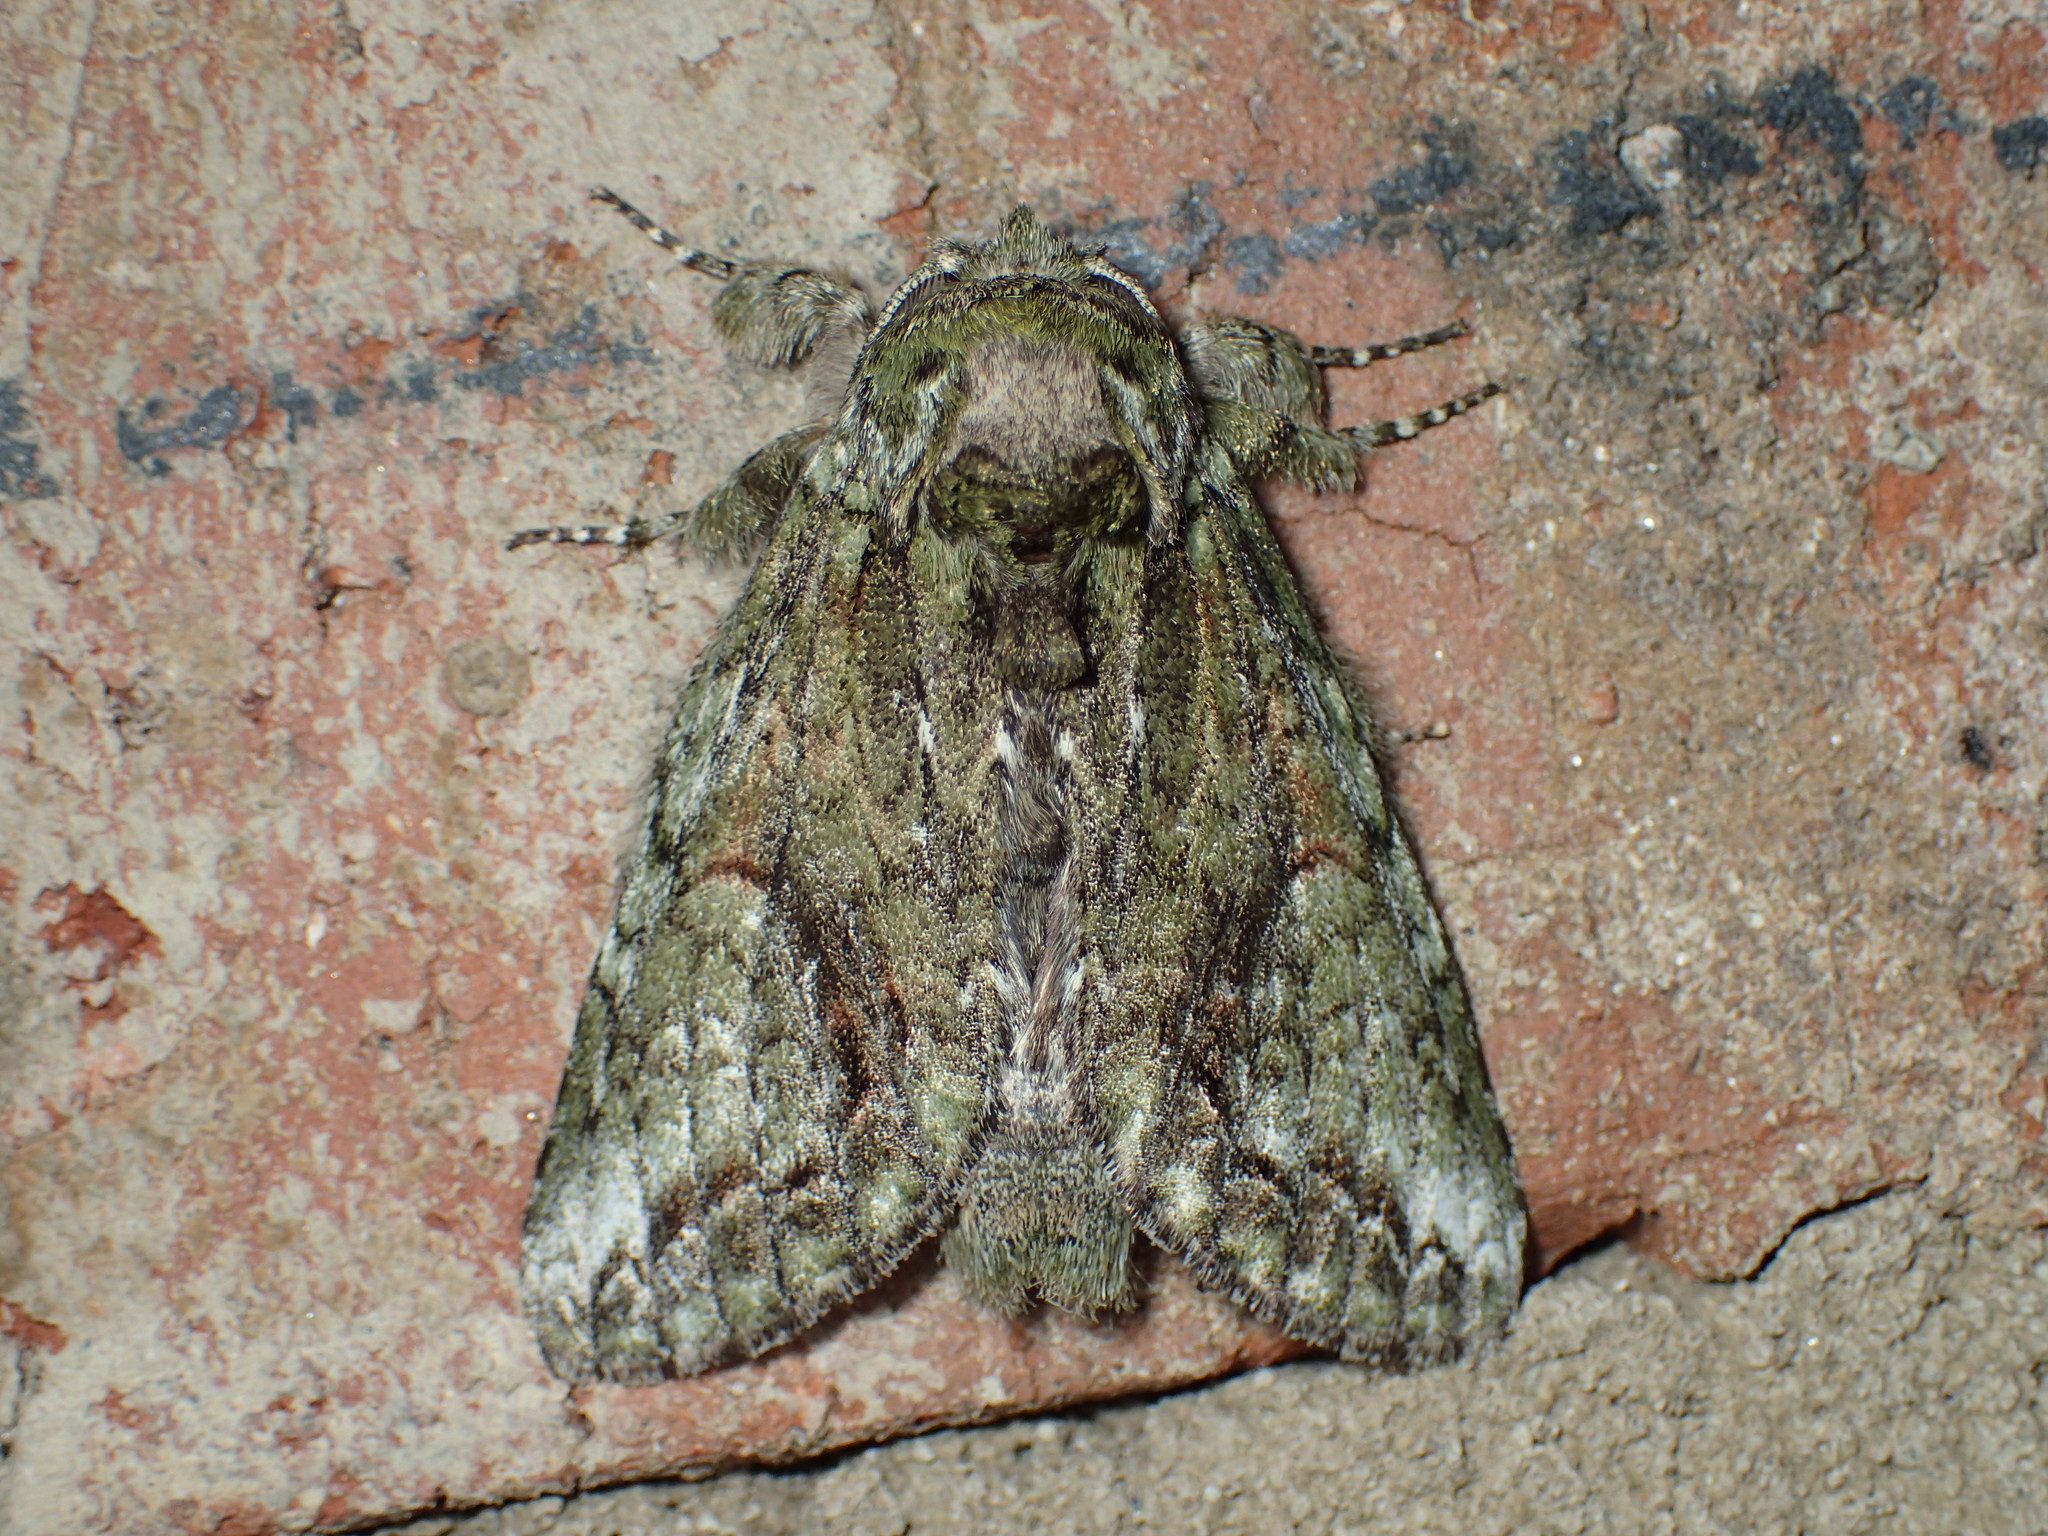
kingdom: Animalia
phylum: Arthropoda
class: Insecta
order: Lepidoptera
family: Notodontidae
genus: Heterocampa
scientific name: Heterocampa
